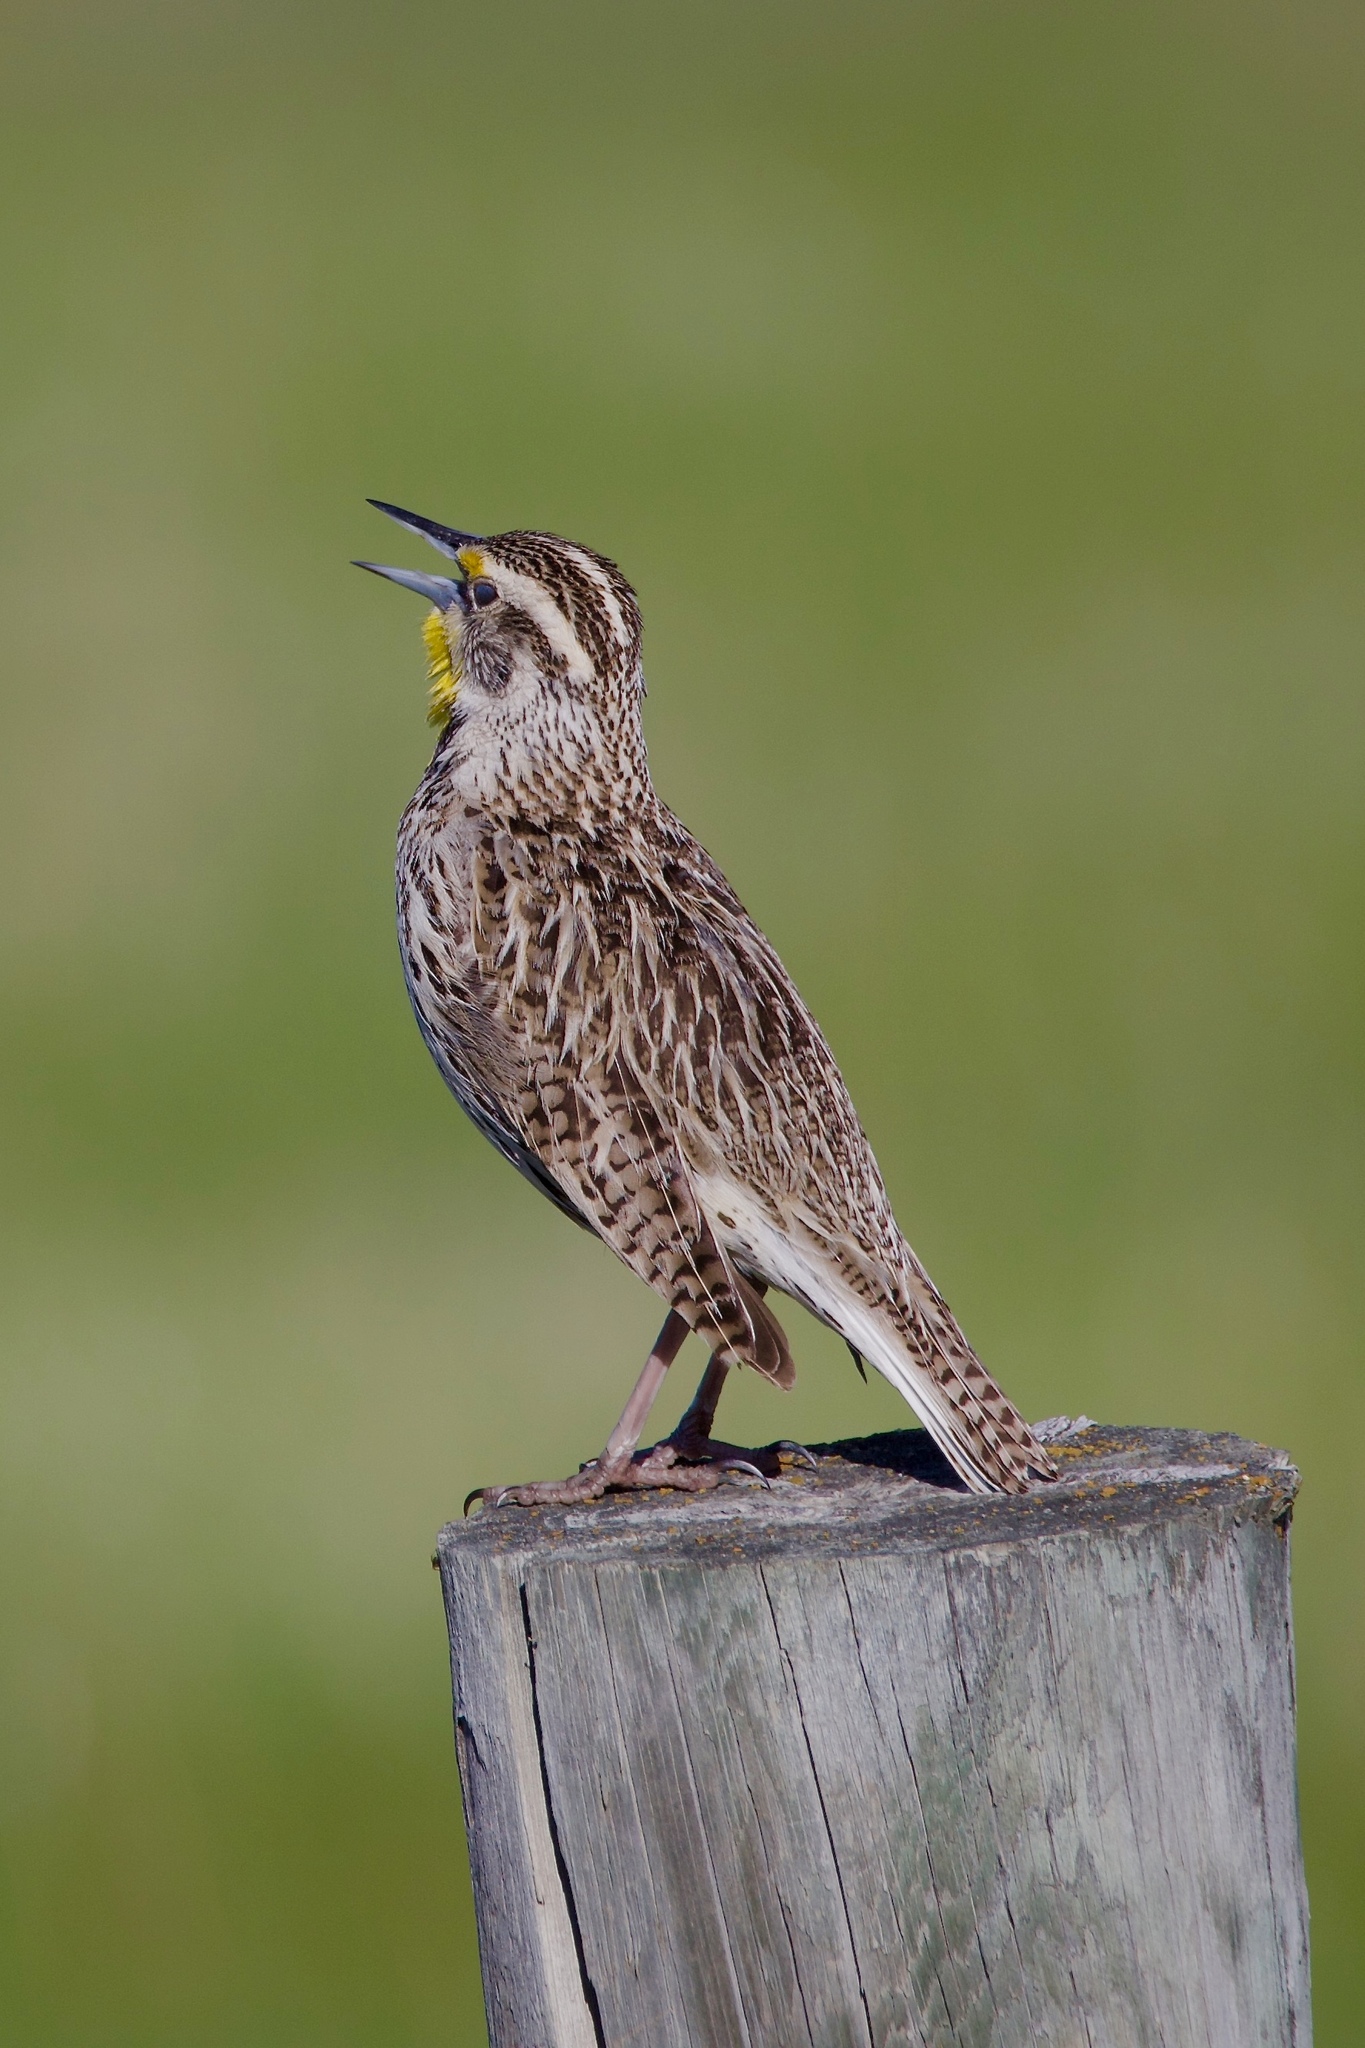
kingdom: Animalia
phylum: Chordata
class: Aves
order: Passeriformes
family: Icteridae
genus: Sturnella
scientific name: Sturnella neglecta
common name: Western meadowlark
